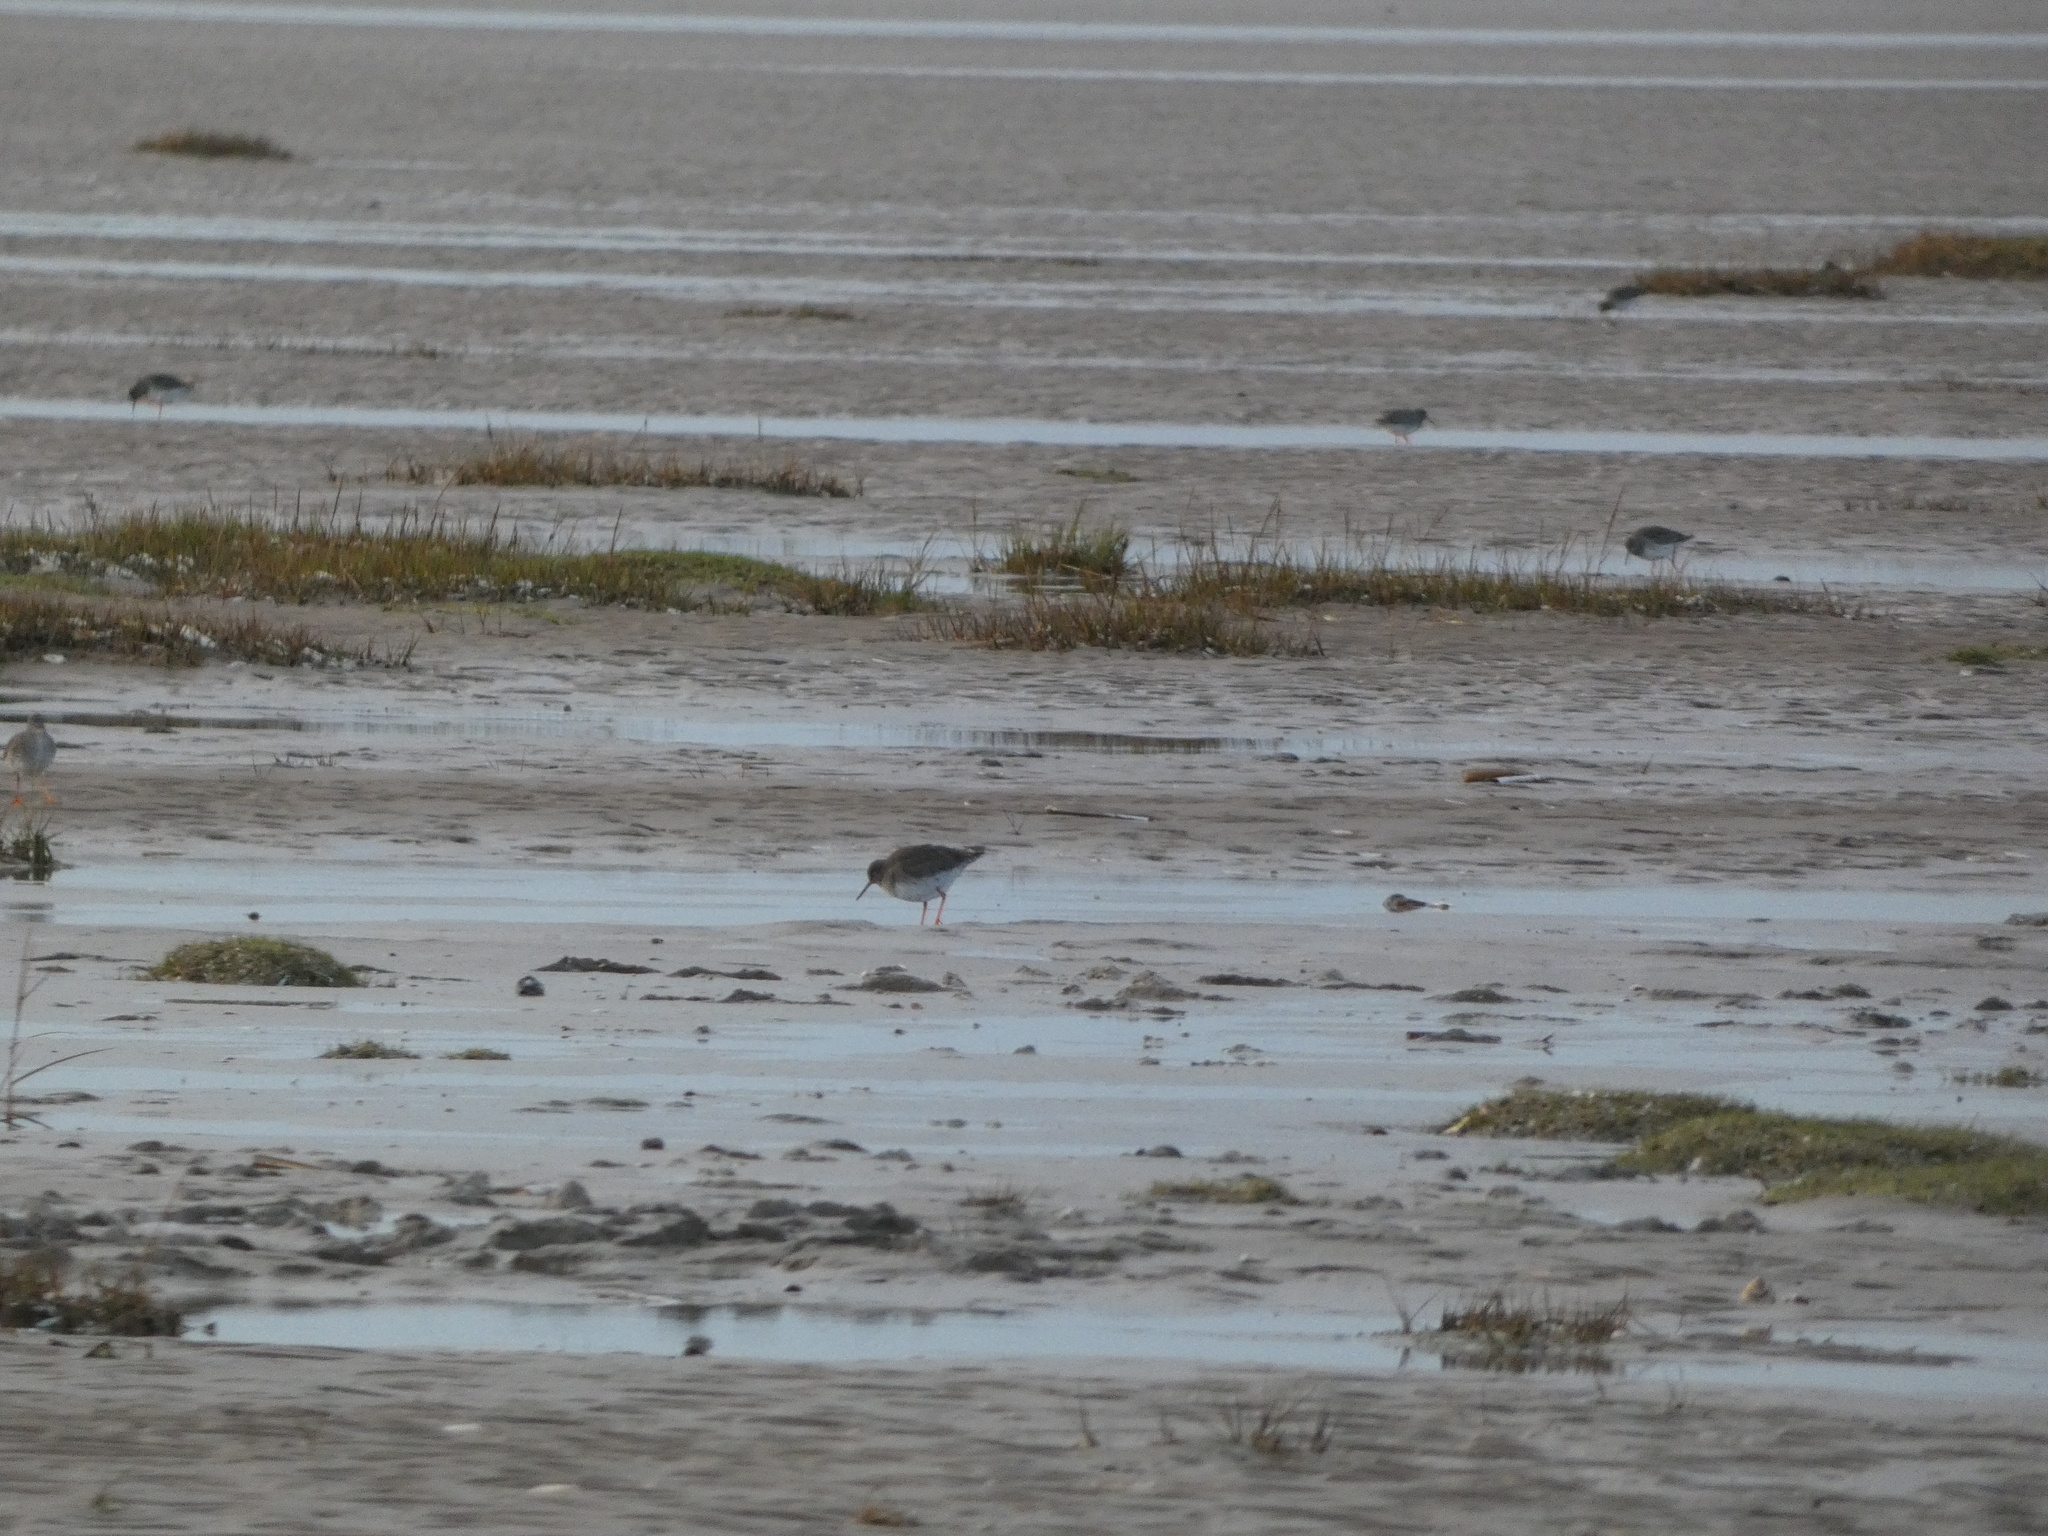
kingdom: Animalia
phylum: Chordata
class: Aves
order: Charadriiformes
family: Scolopacidae
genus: Tringa
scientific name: Tringa totanus
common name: Common redshank
